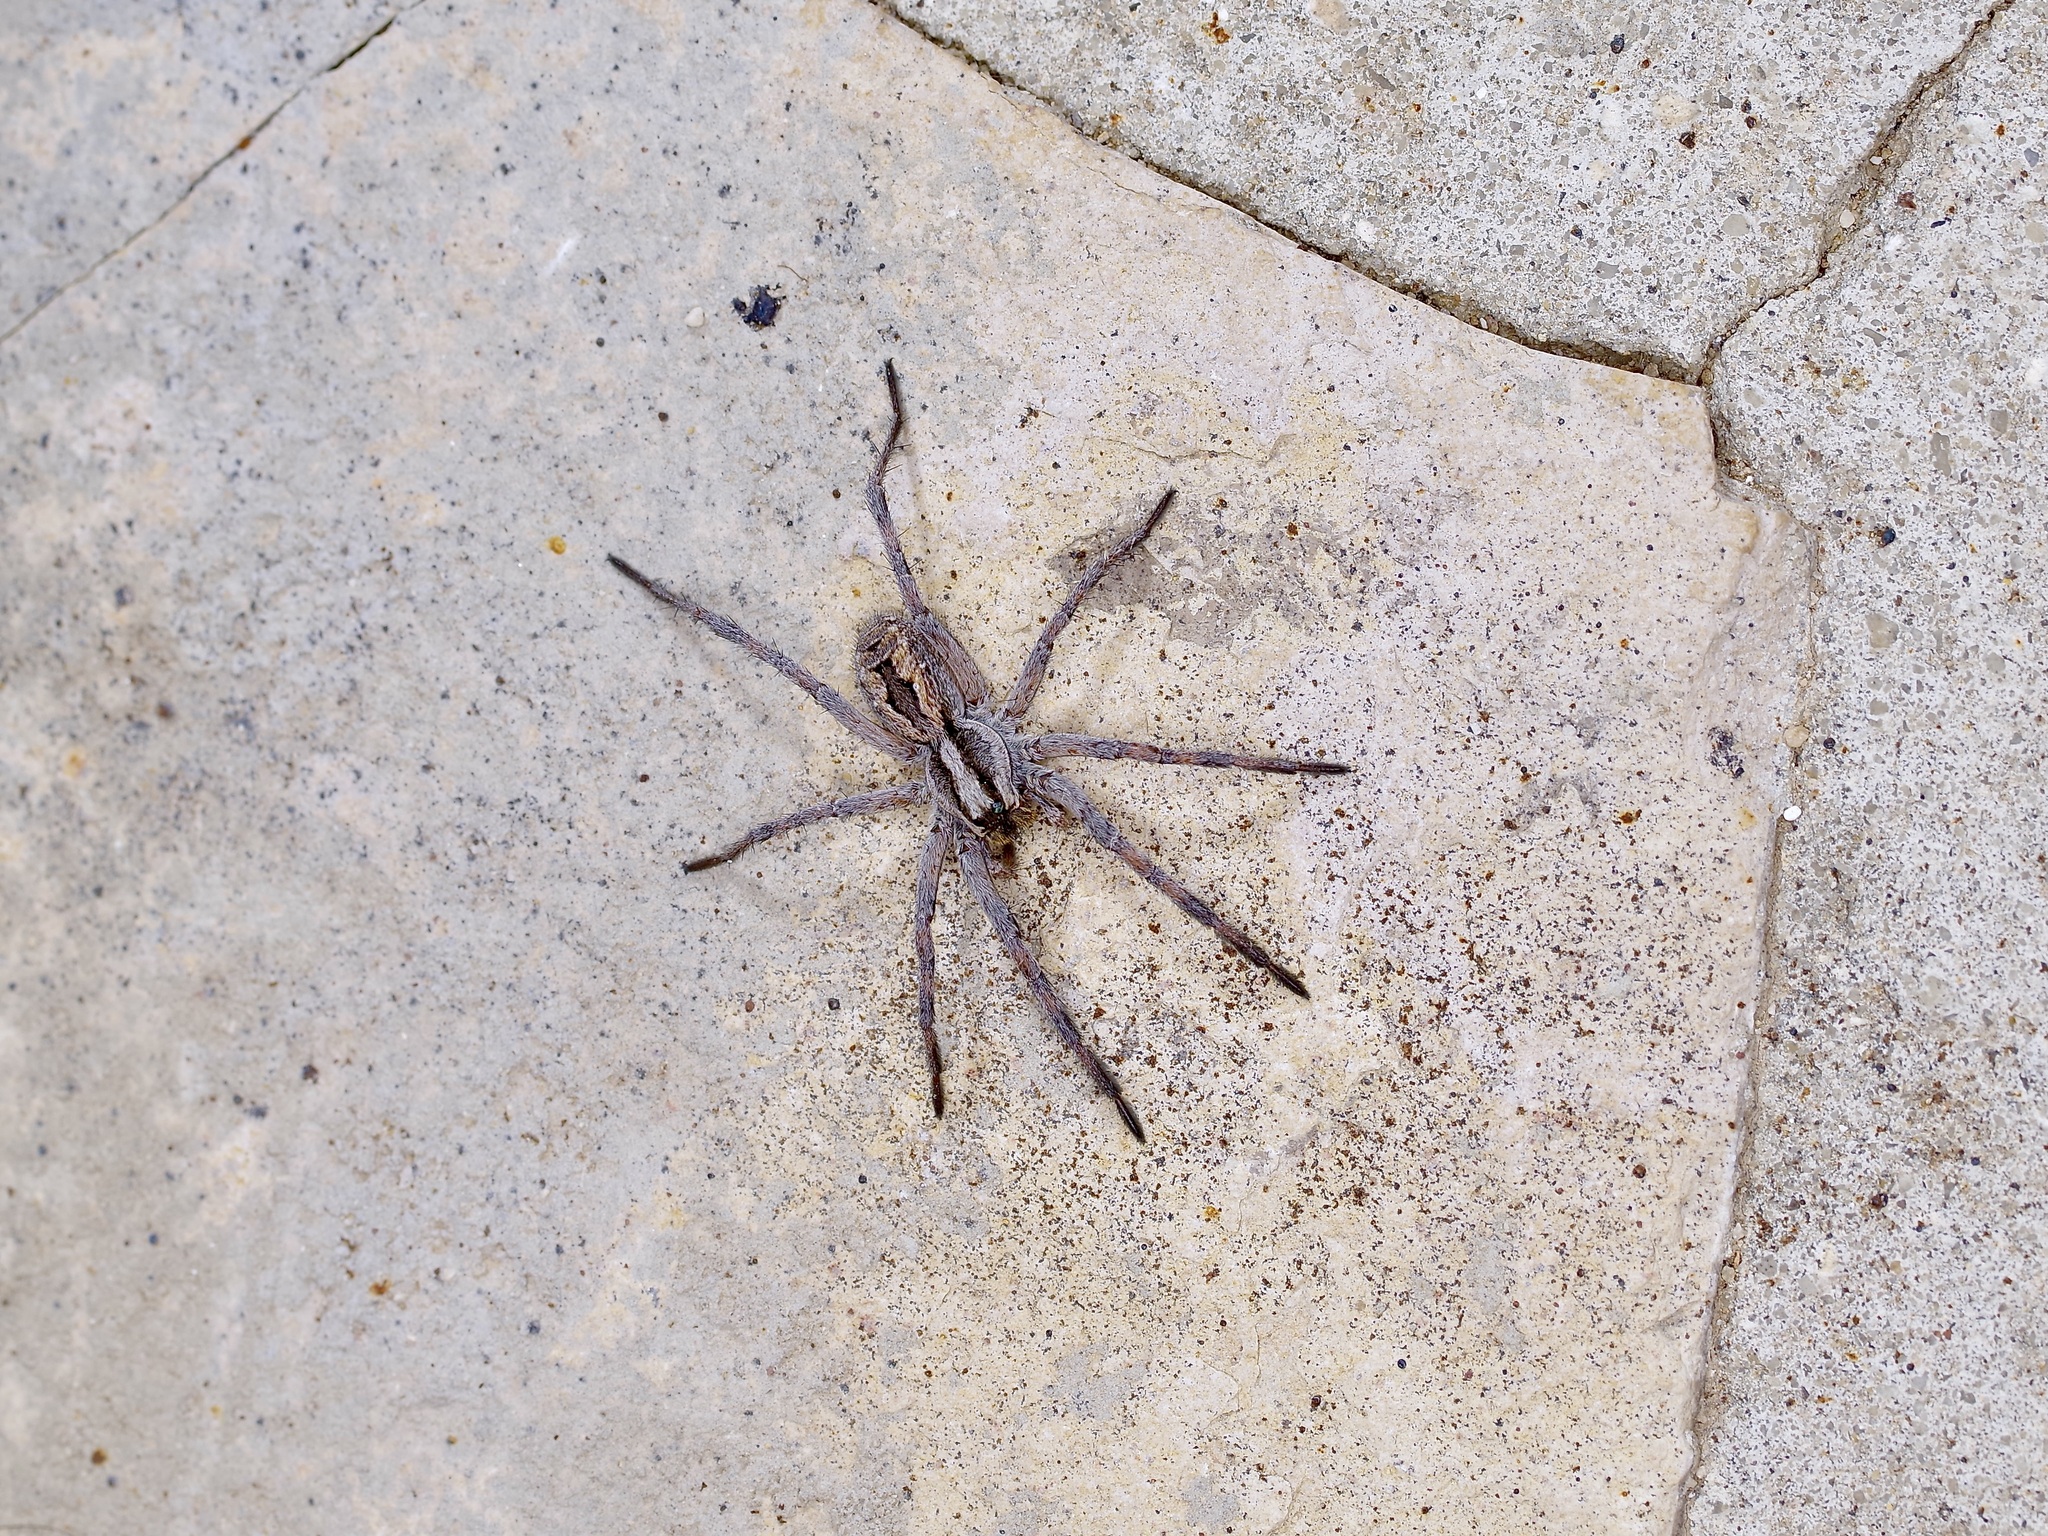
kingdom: Animalia
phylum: Arthropoda
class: Arachnida
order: Araneae
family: Lycosidae
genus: Hogna
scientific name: Hogna carolinensis
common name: Carolina wolf spider
